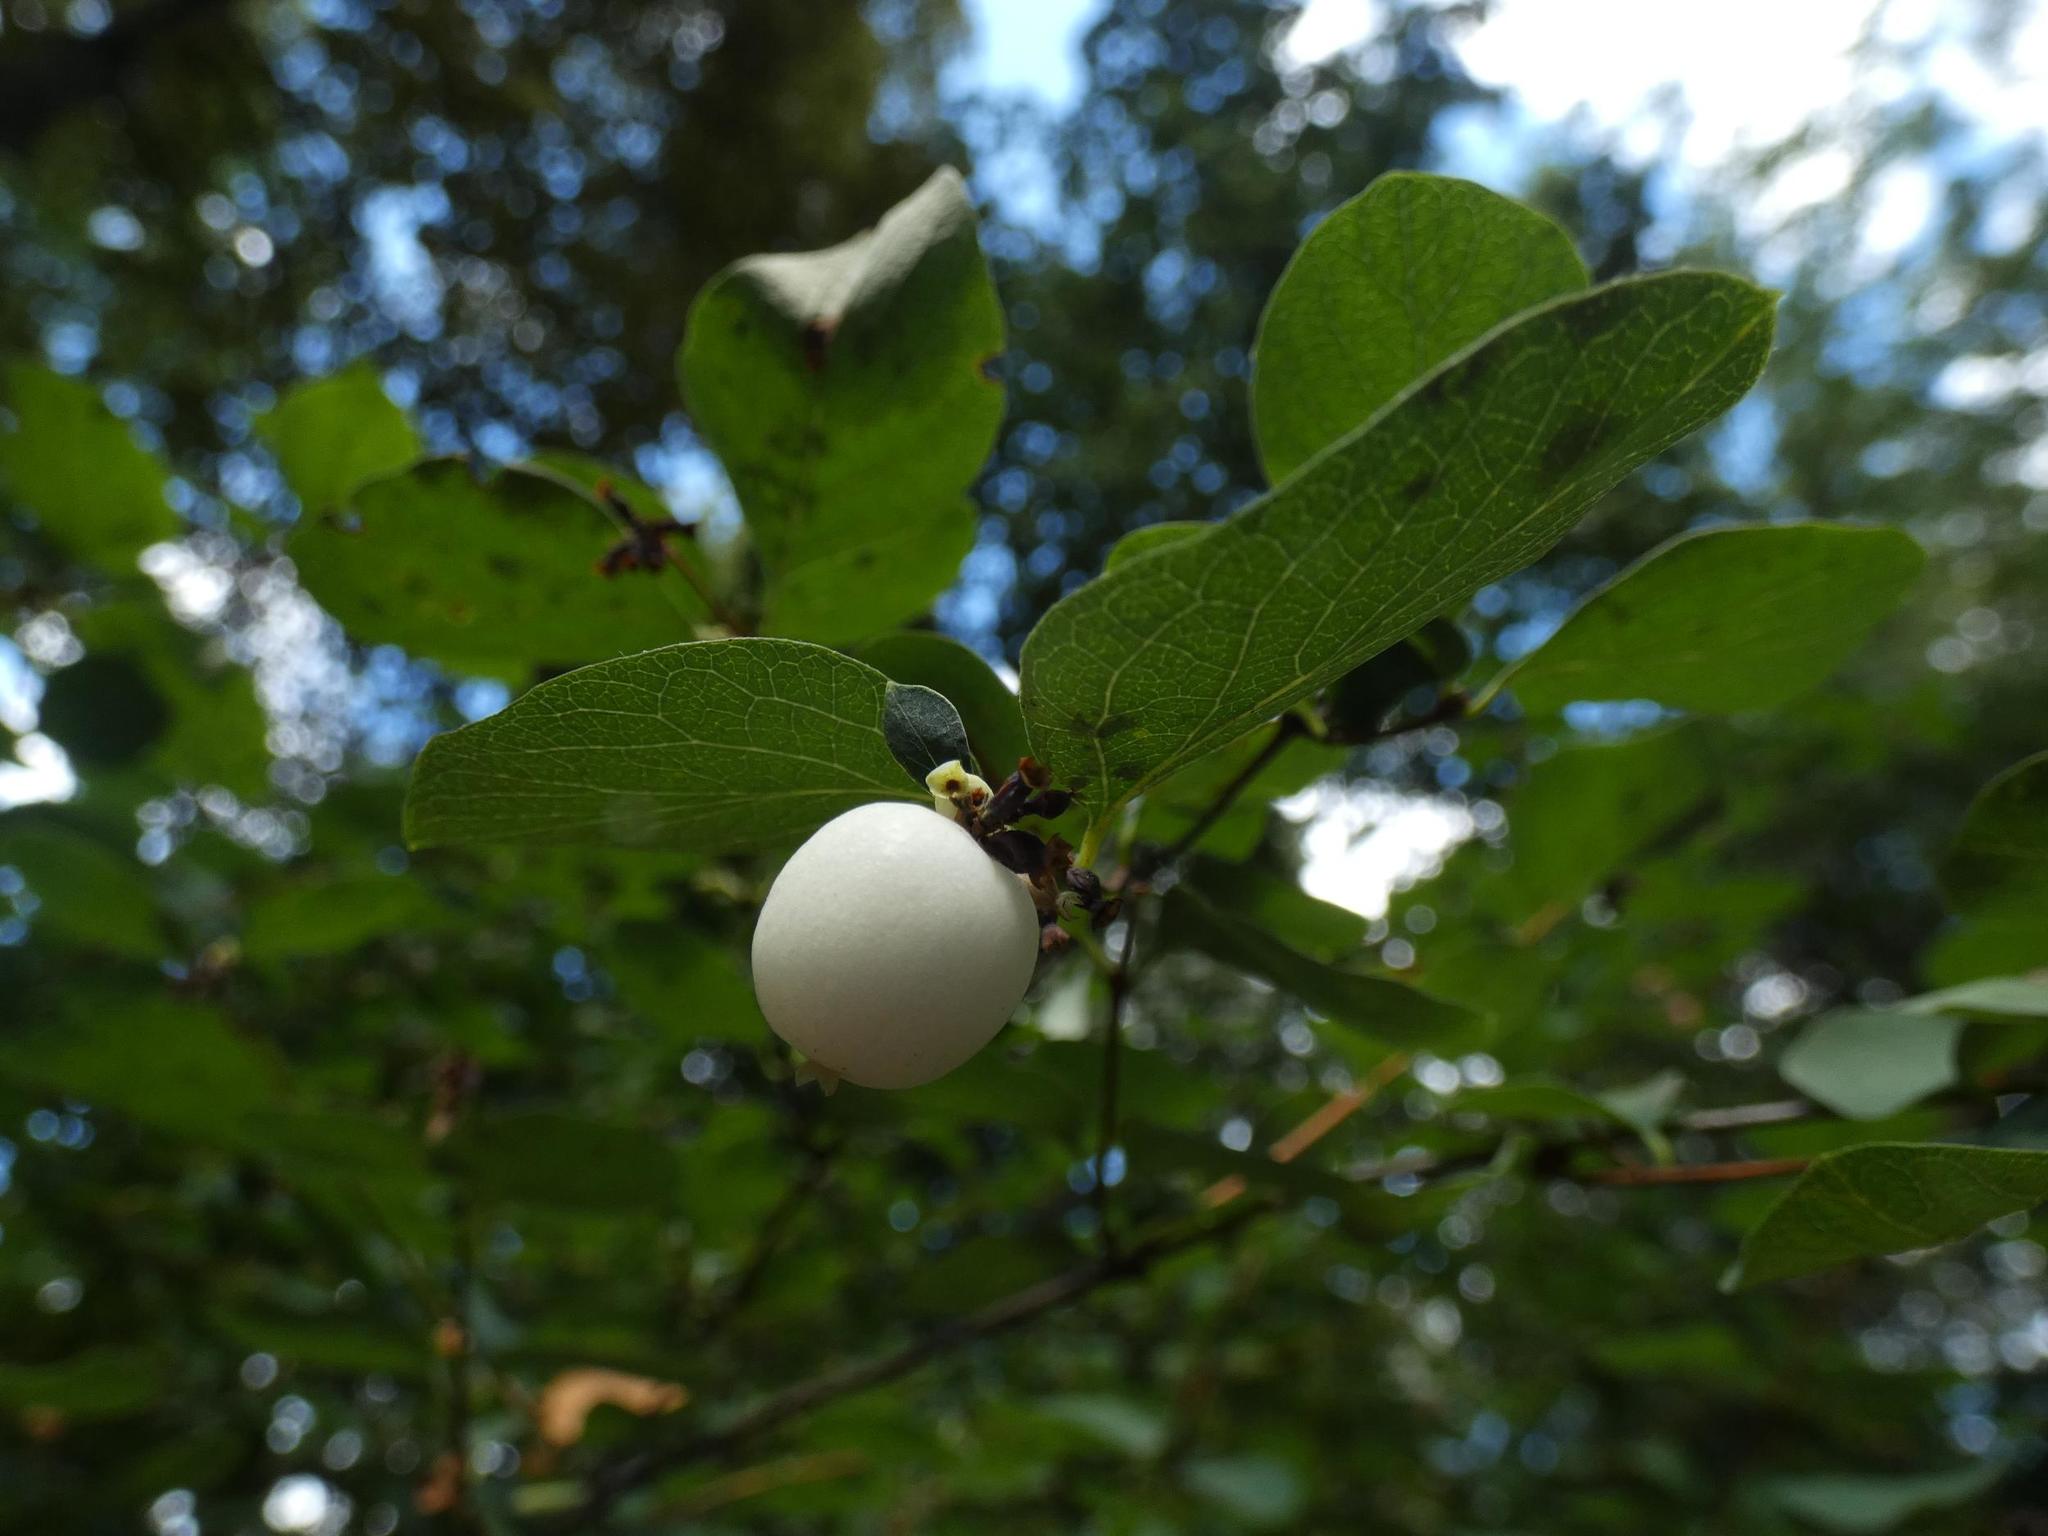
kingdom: Plantae
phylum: Tracheophyta
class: Magnoliopsida
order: Dipsacales
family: Caprifoliaceae
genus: Symphoricarpos
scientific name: Symphoricarpos albus
